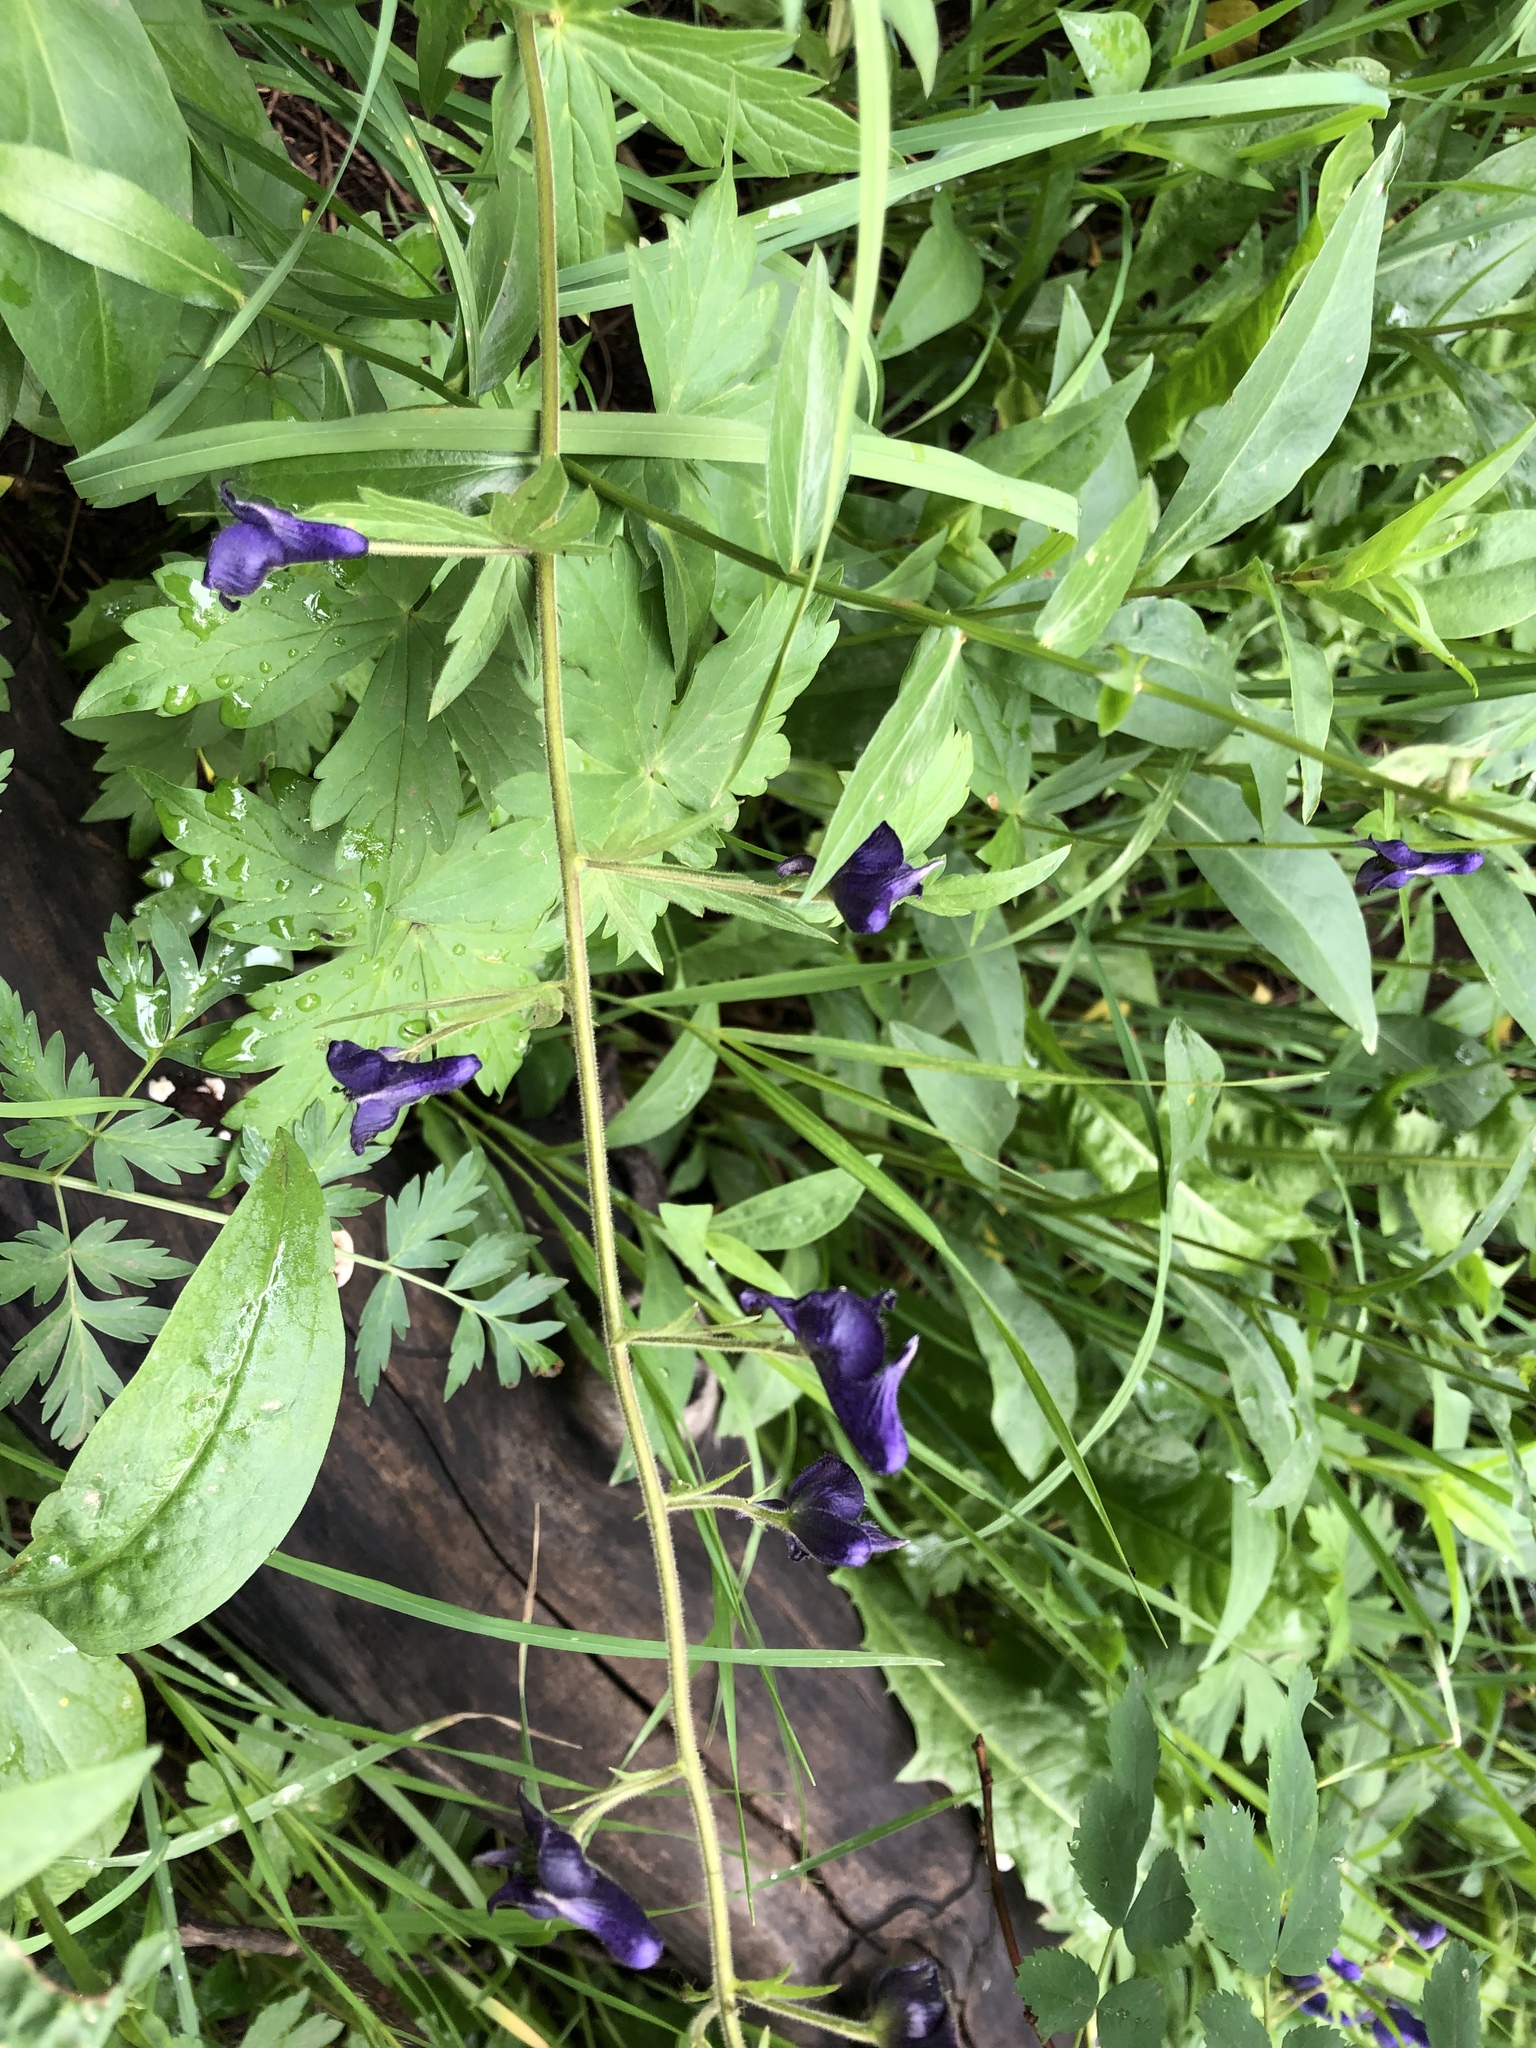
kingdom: Plantae
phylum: Tracheophyta
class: Magnoliopsida
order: Ranunculales
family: Ranunculaceae
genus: Aconitum
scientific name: Aconitum columbianum
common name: Columbia aconite
